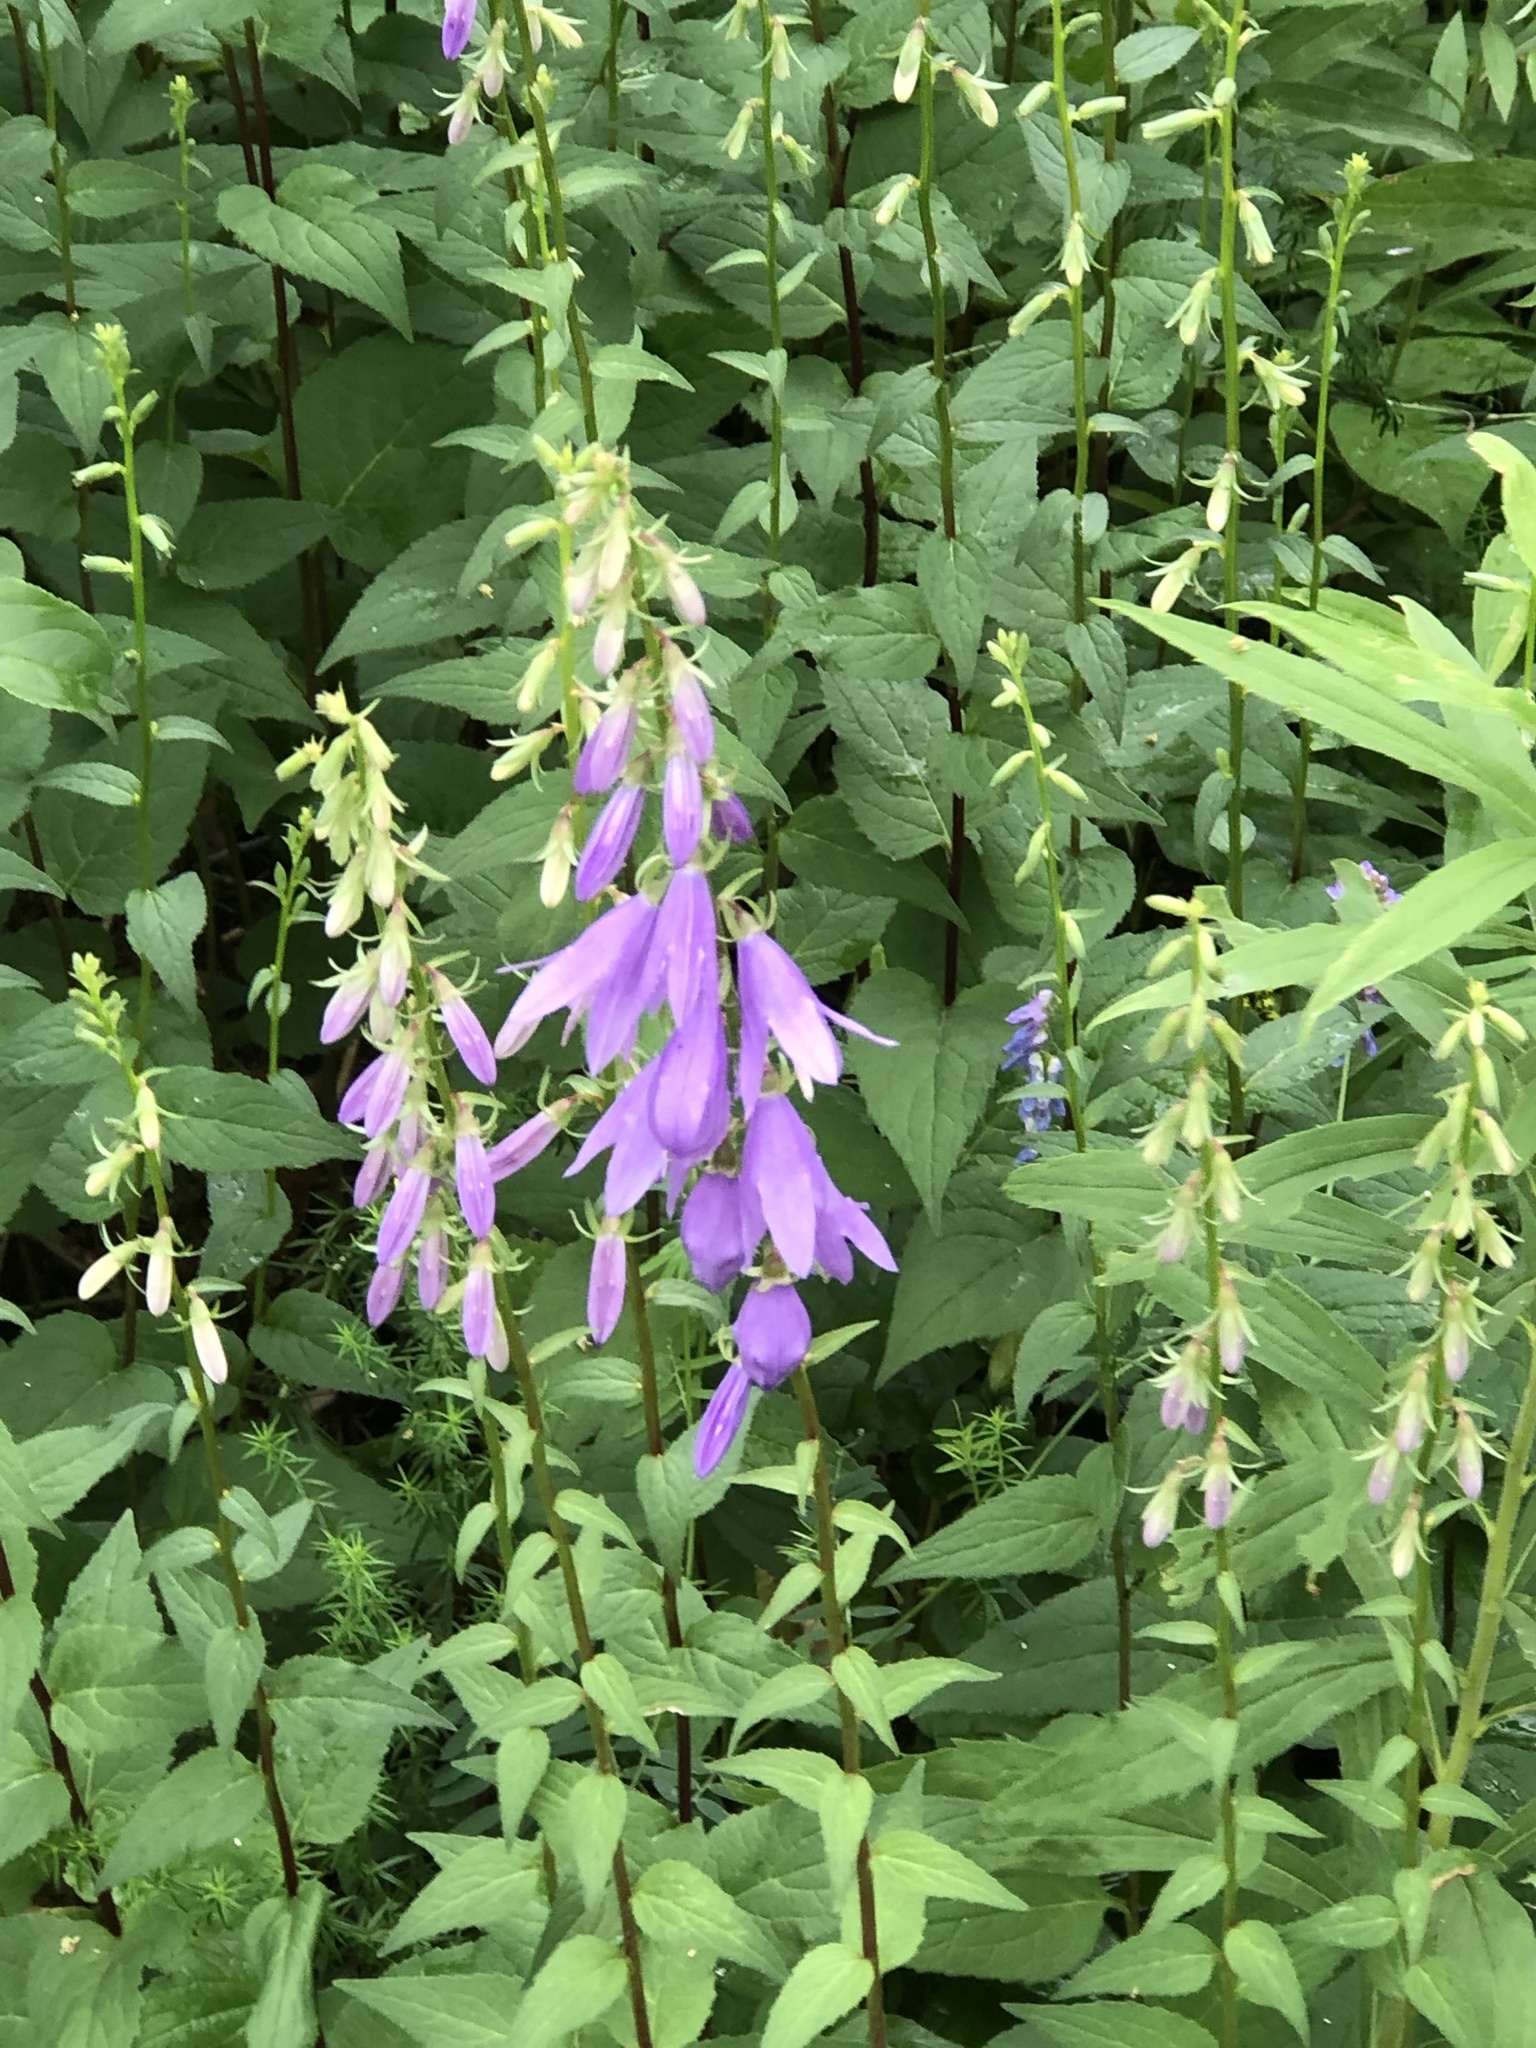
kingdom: Plantae
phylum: Tracheophyta
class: Magnoliopsida
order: Asterales
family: Campanulaceae
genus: Campanula
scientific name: Campanula rapunculoides
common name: Creeping bellflower
